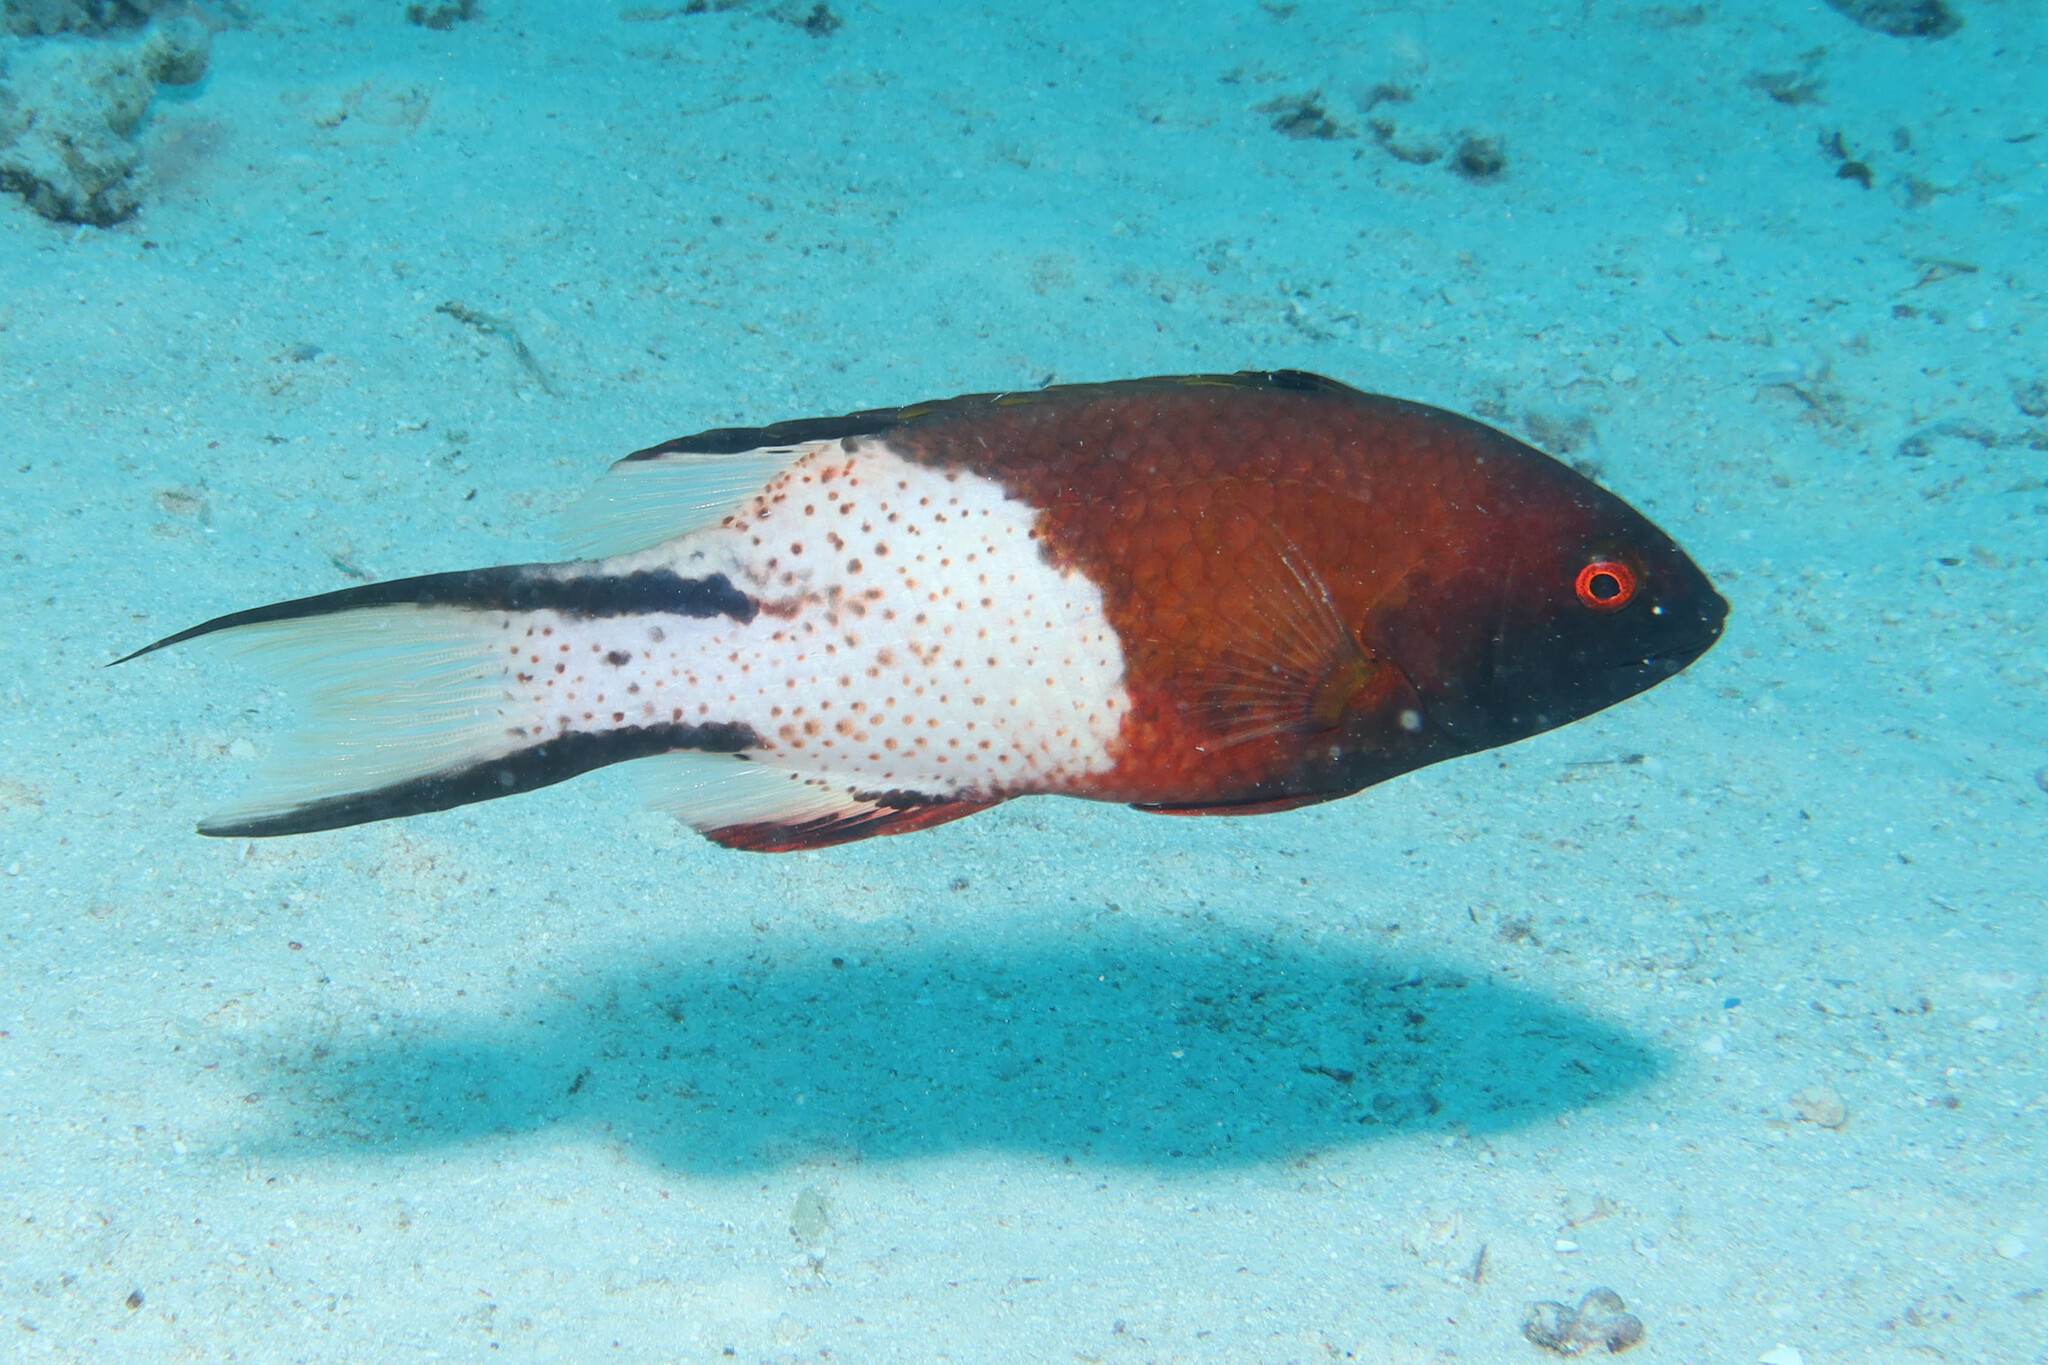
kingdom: Animalia
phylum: Chordata
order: Perciformes
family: Labridae
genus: Bodianus
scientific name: Bodianus anthioides
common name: Lyretail hogfish
